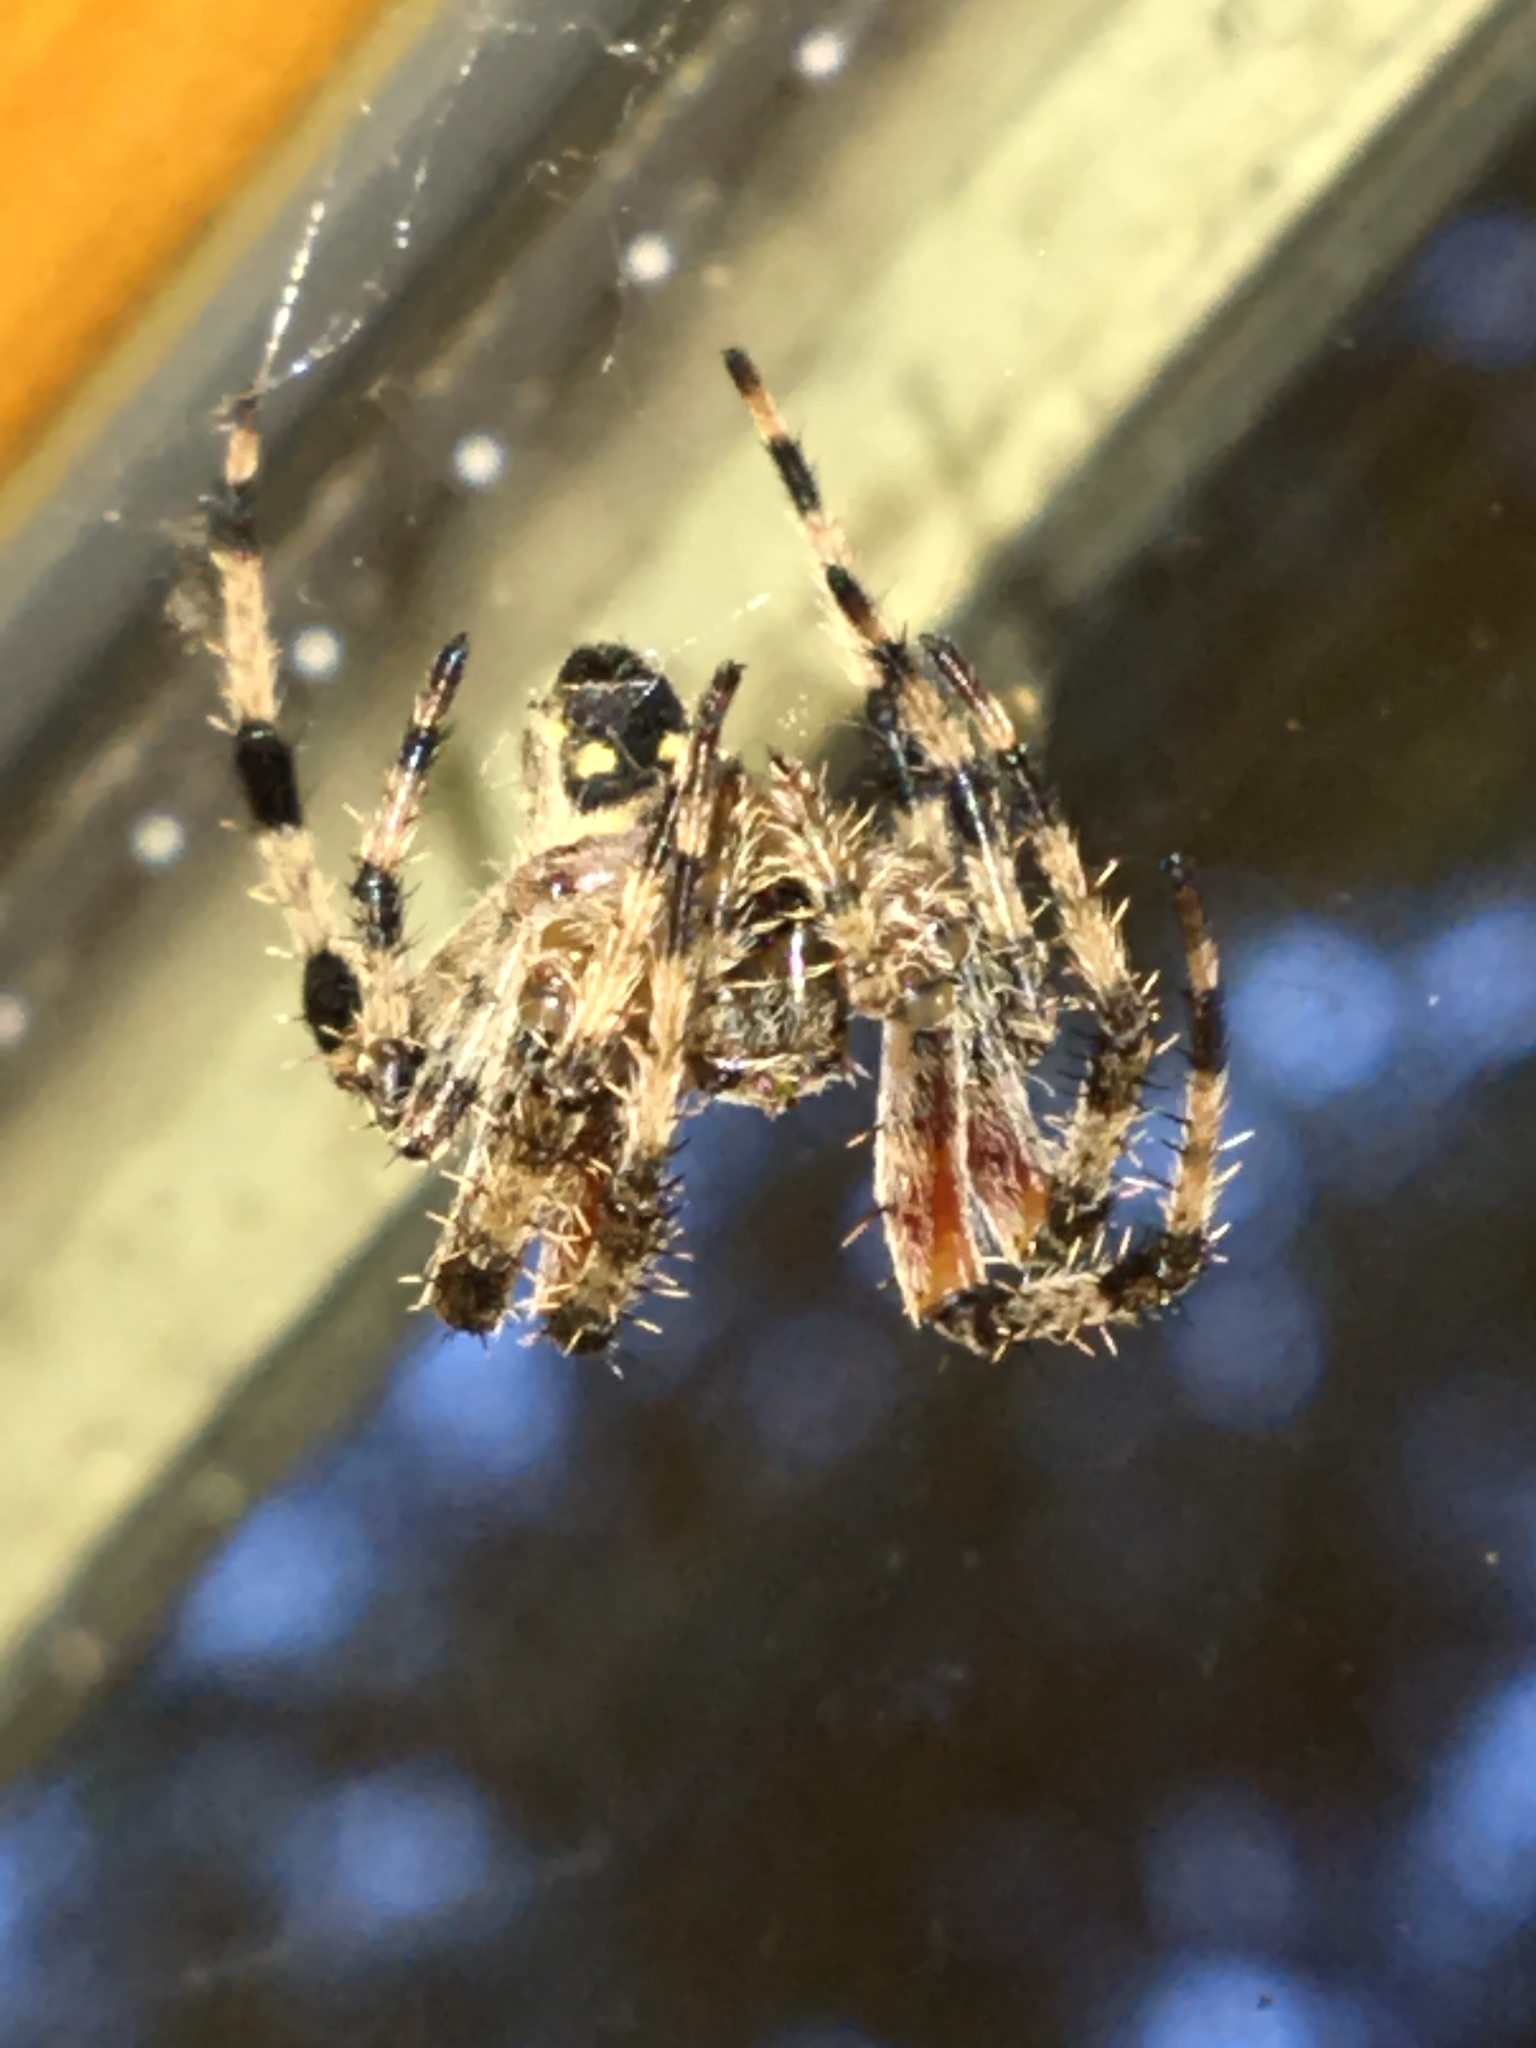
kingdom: Animalia
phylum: Arthropoda
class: Arachnida
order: Araneae
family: Araneidae
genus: Araneus
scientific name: Araneus nordmanni
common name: Nordmann's orbweaver
